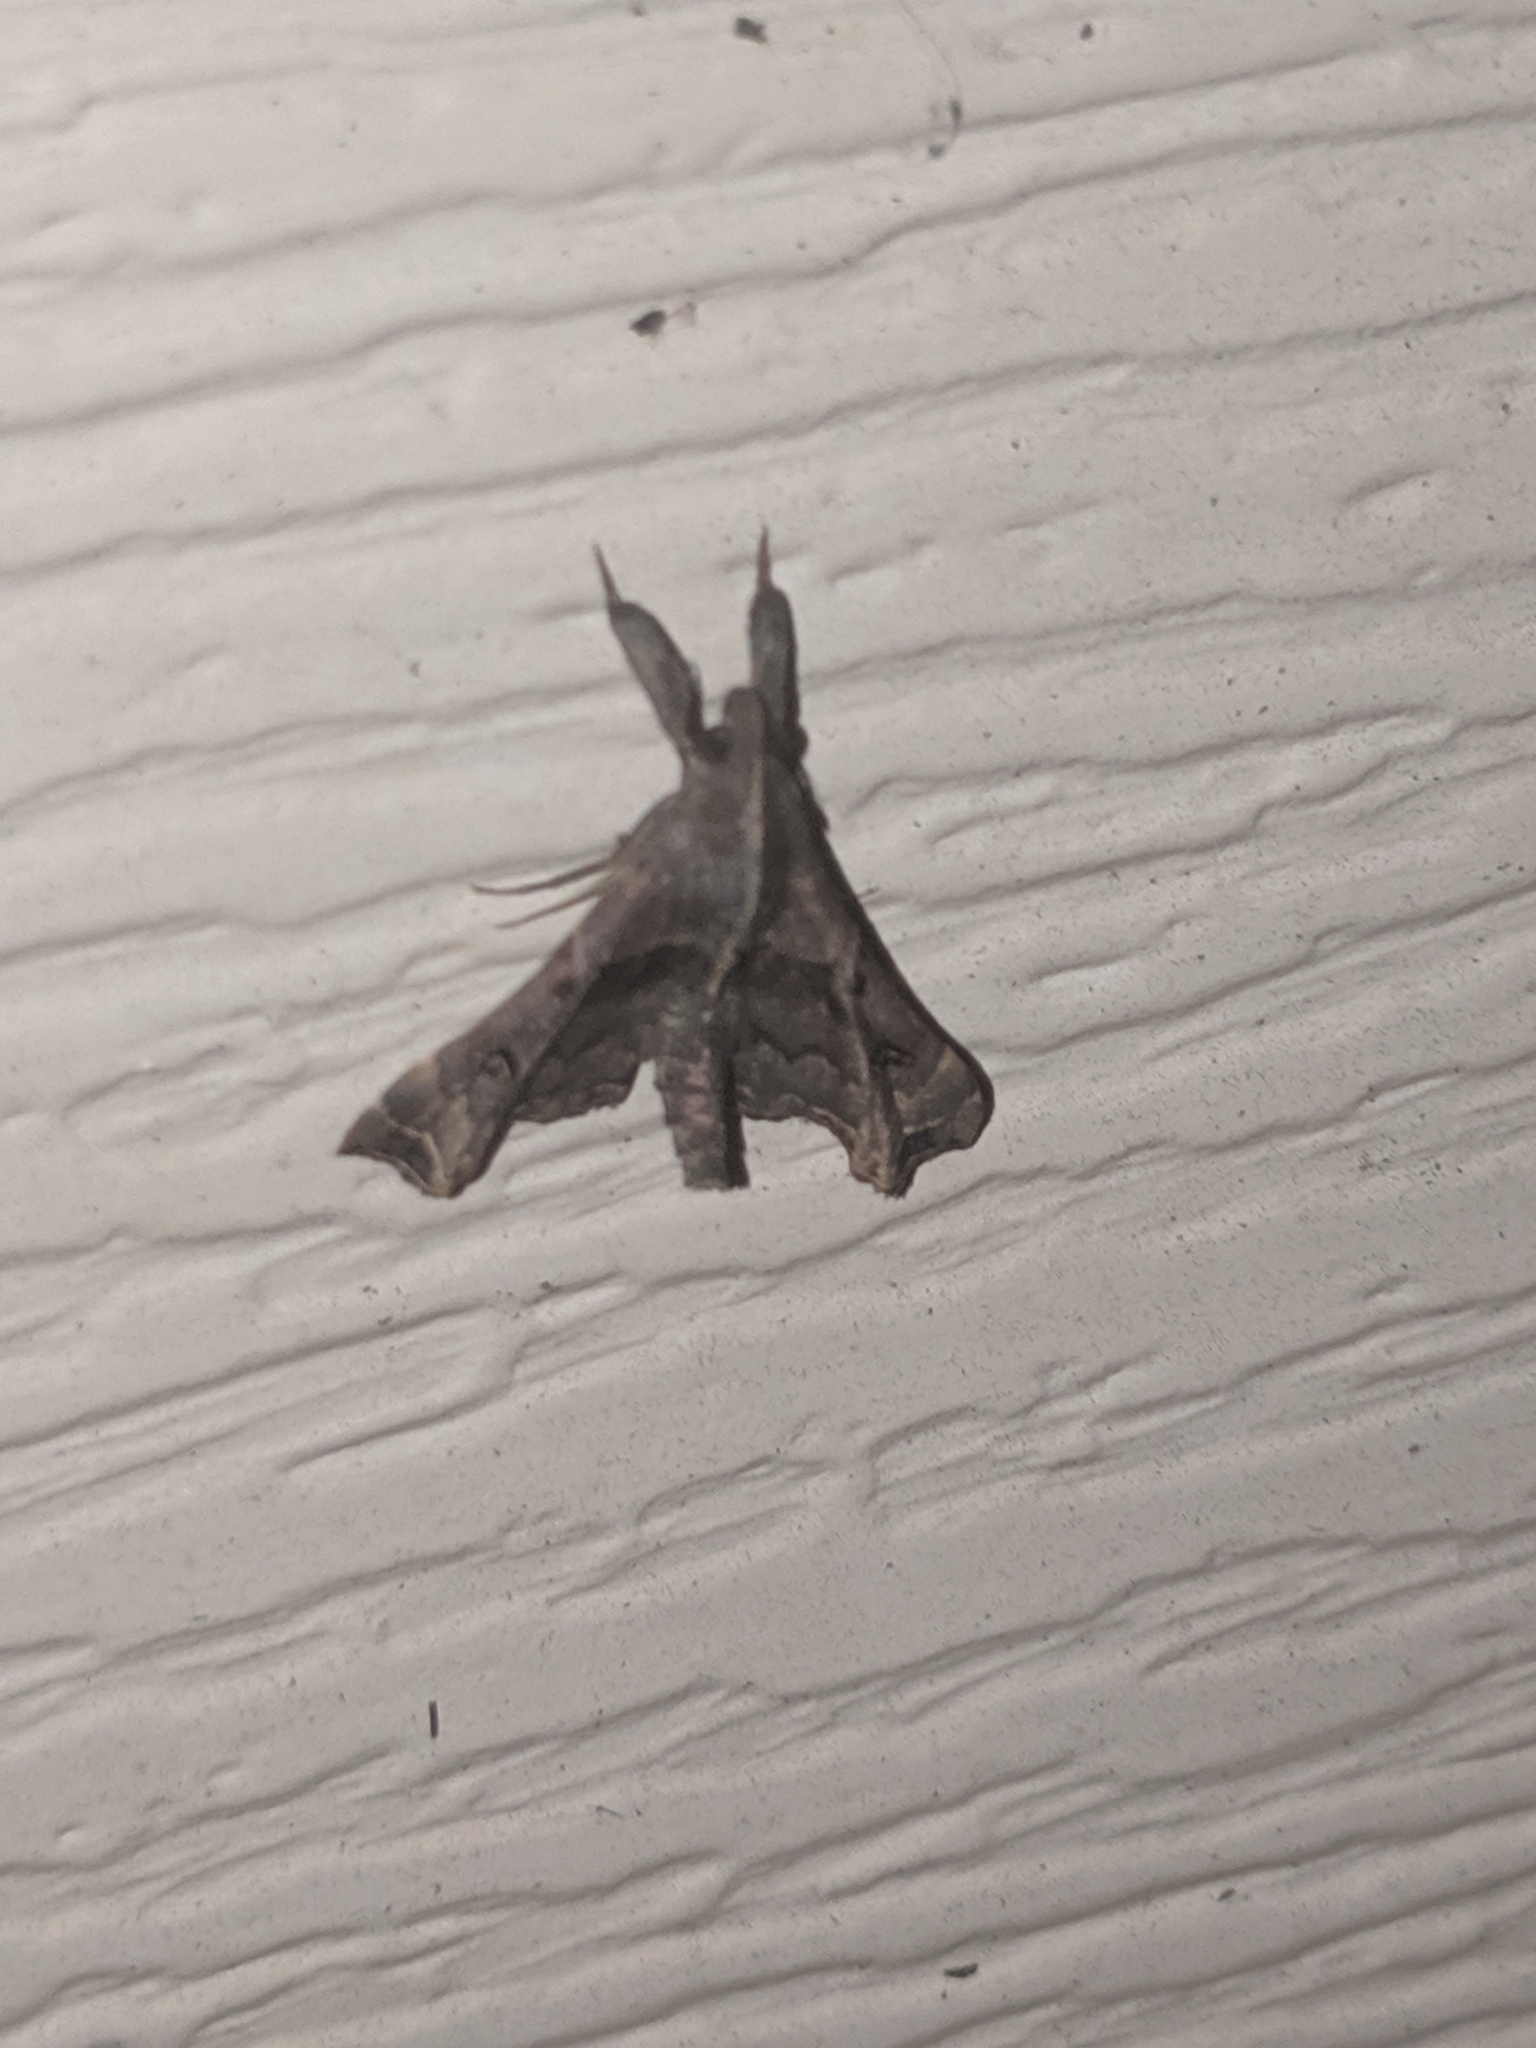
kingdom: Animalia
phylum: Arthropoda
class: Insecta
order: Lepidoptera
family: Erebidae
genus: Palthis
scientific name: Palthis asopialis
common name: Faint-spotted palthis moth
